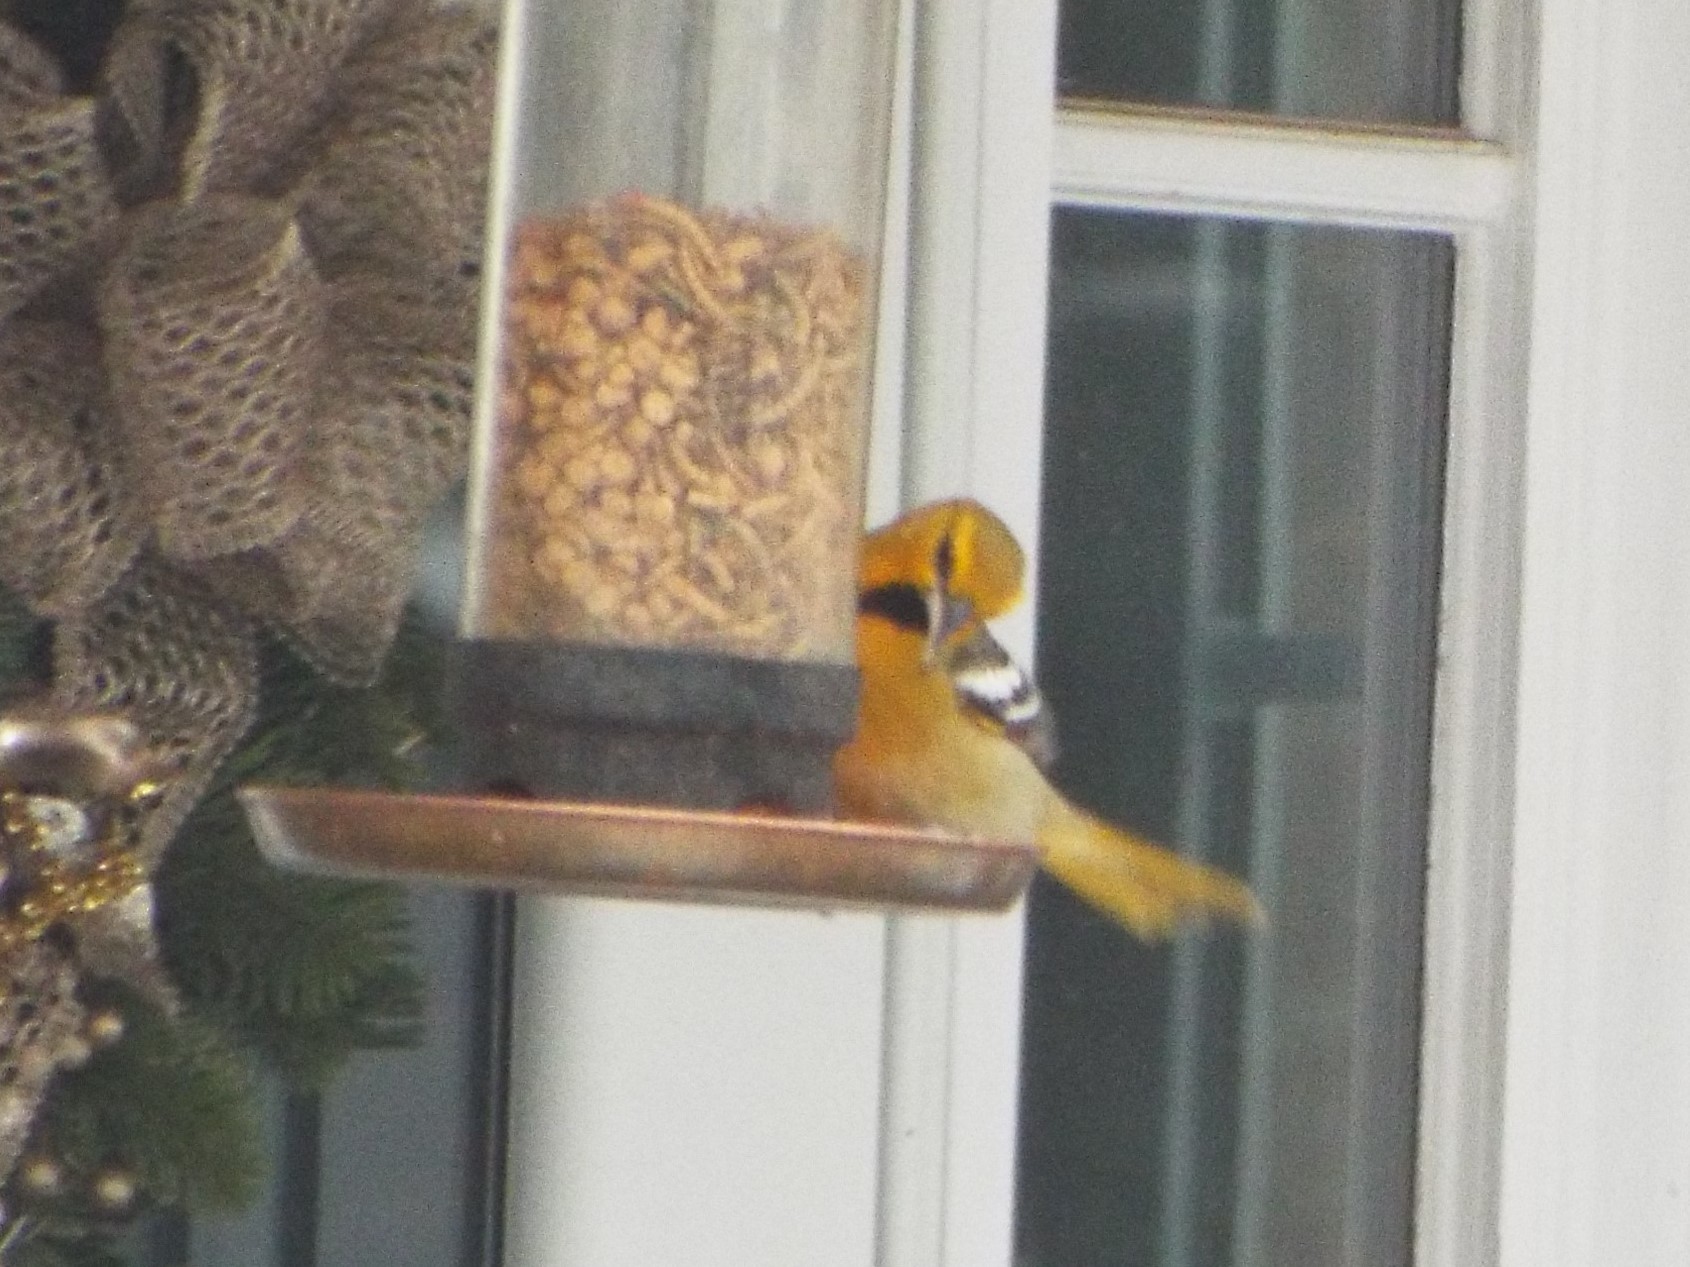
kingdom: Animalia
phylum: Chordata
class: Aves
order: Passeriformes
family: Icteridae
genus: Icterus
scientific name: Icterus bullockii
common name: Bullock's oriole
